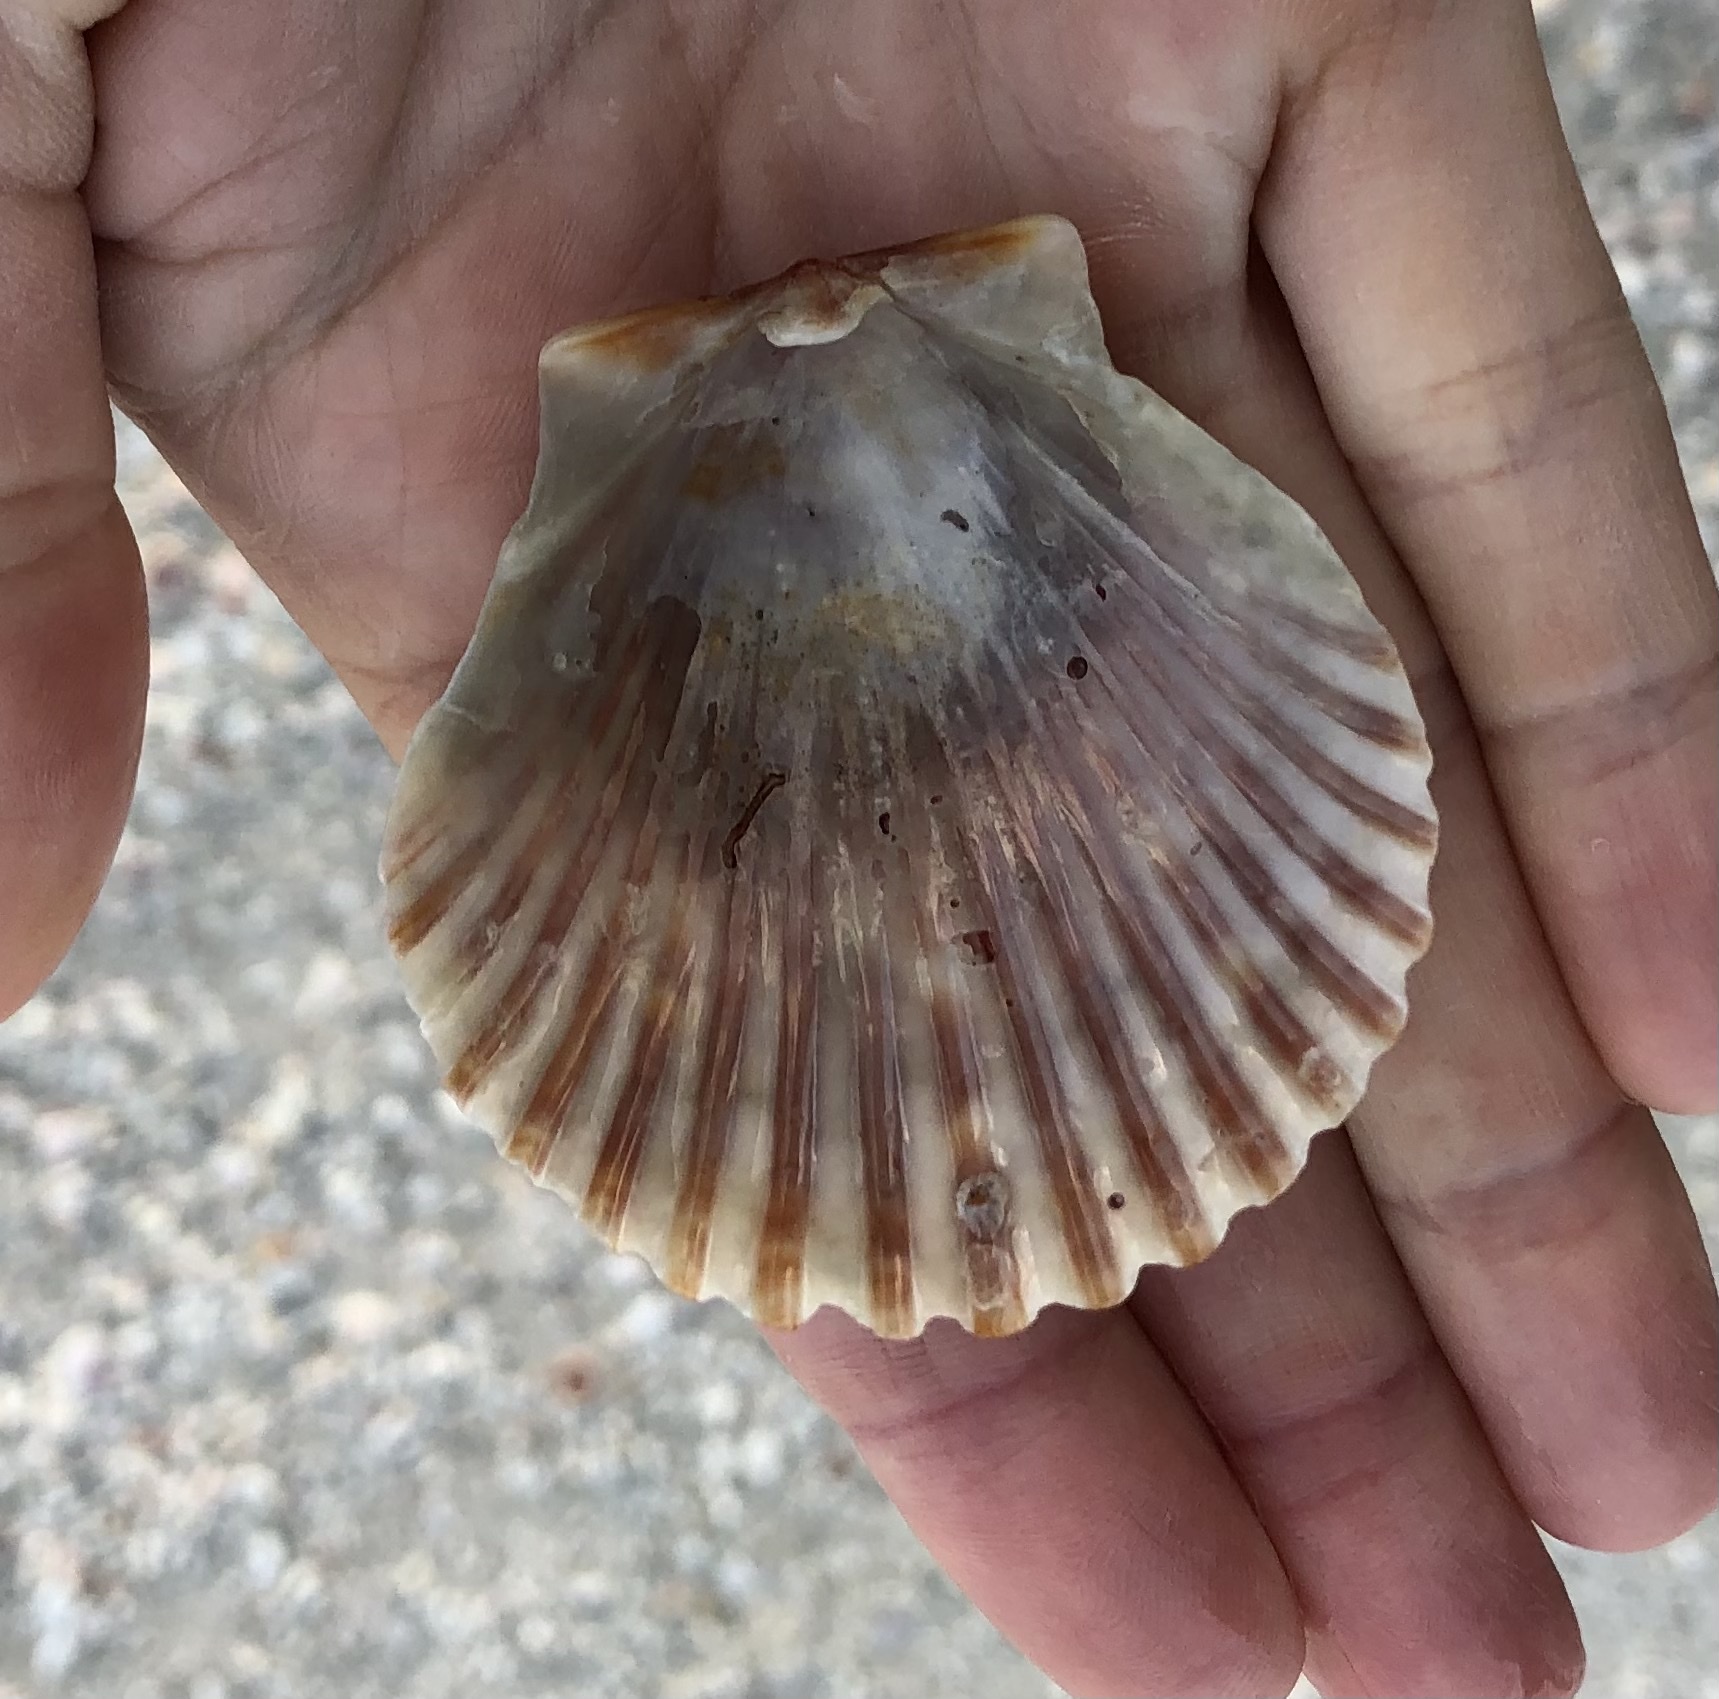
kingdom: Animalia
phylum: Mollusca
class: Bivalvia
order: Pectinida
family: Pectinidae
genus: Argopecten
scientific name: Argopecten irradians
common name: Atlantic bay scallop
